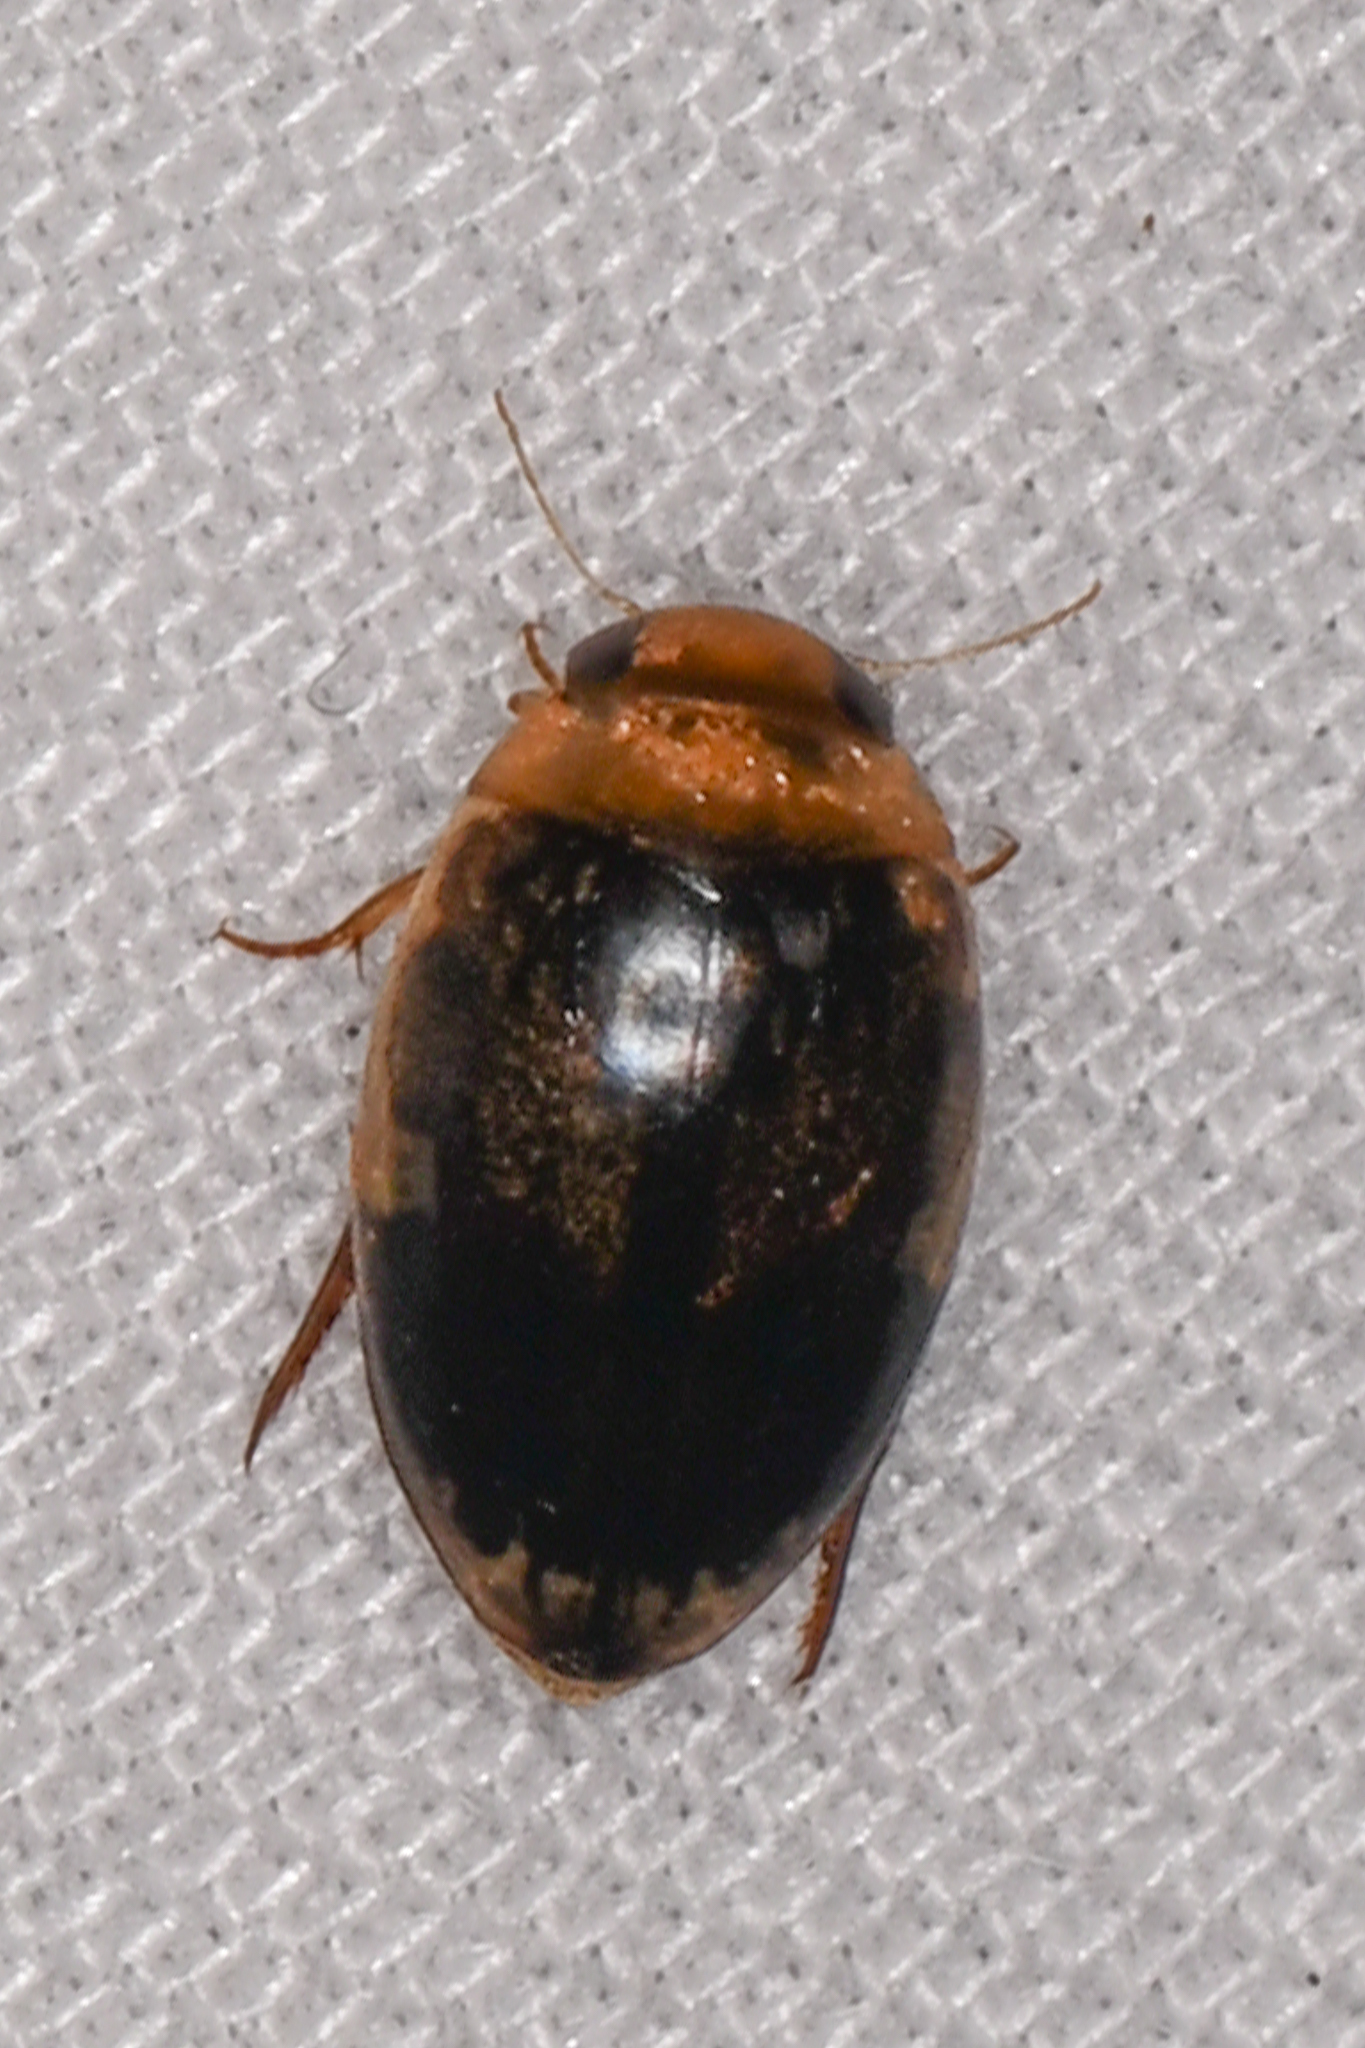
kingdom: Animalia
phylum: Arthropoda
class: Insecta
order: Coleoptera
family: Dytiscidae
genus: Laccophilus
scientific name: Laccophilus fasciatus
